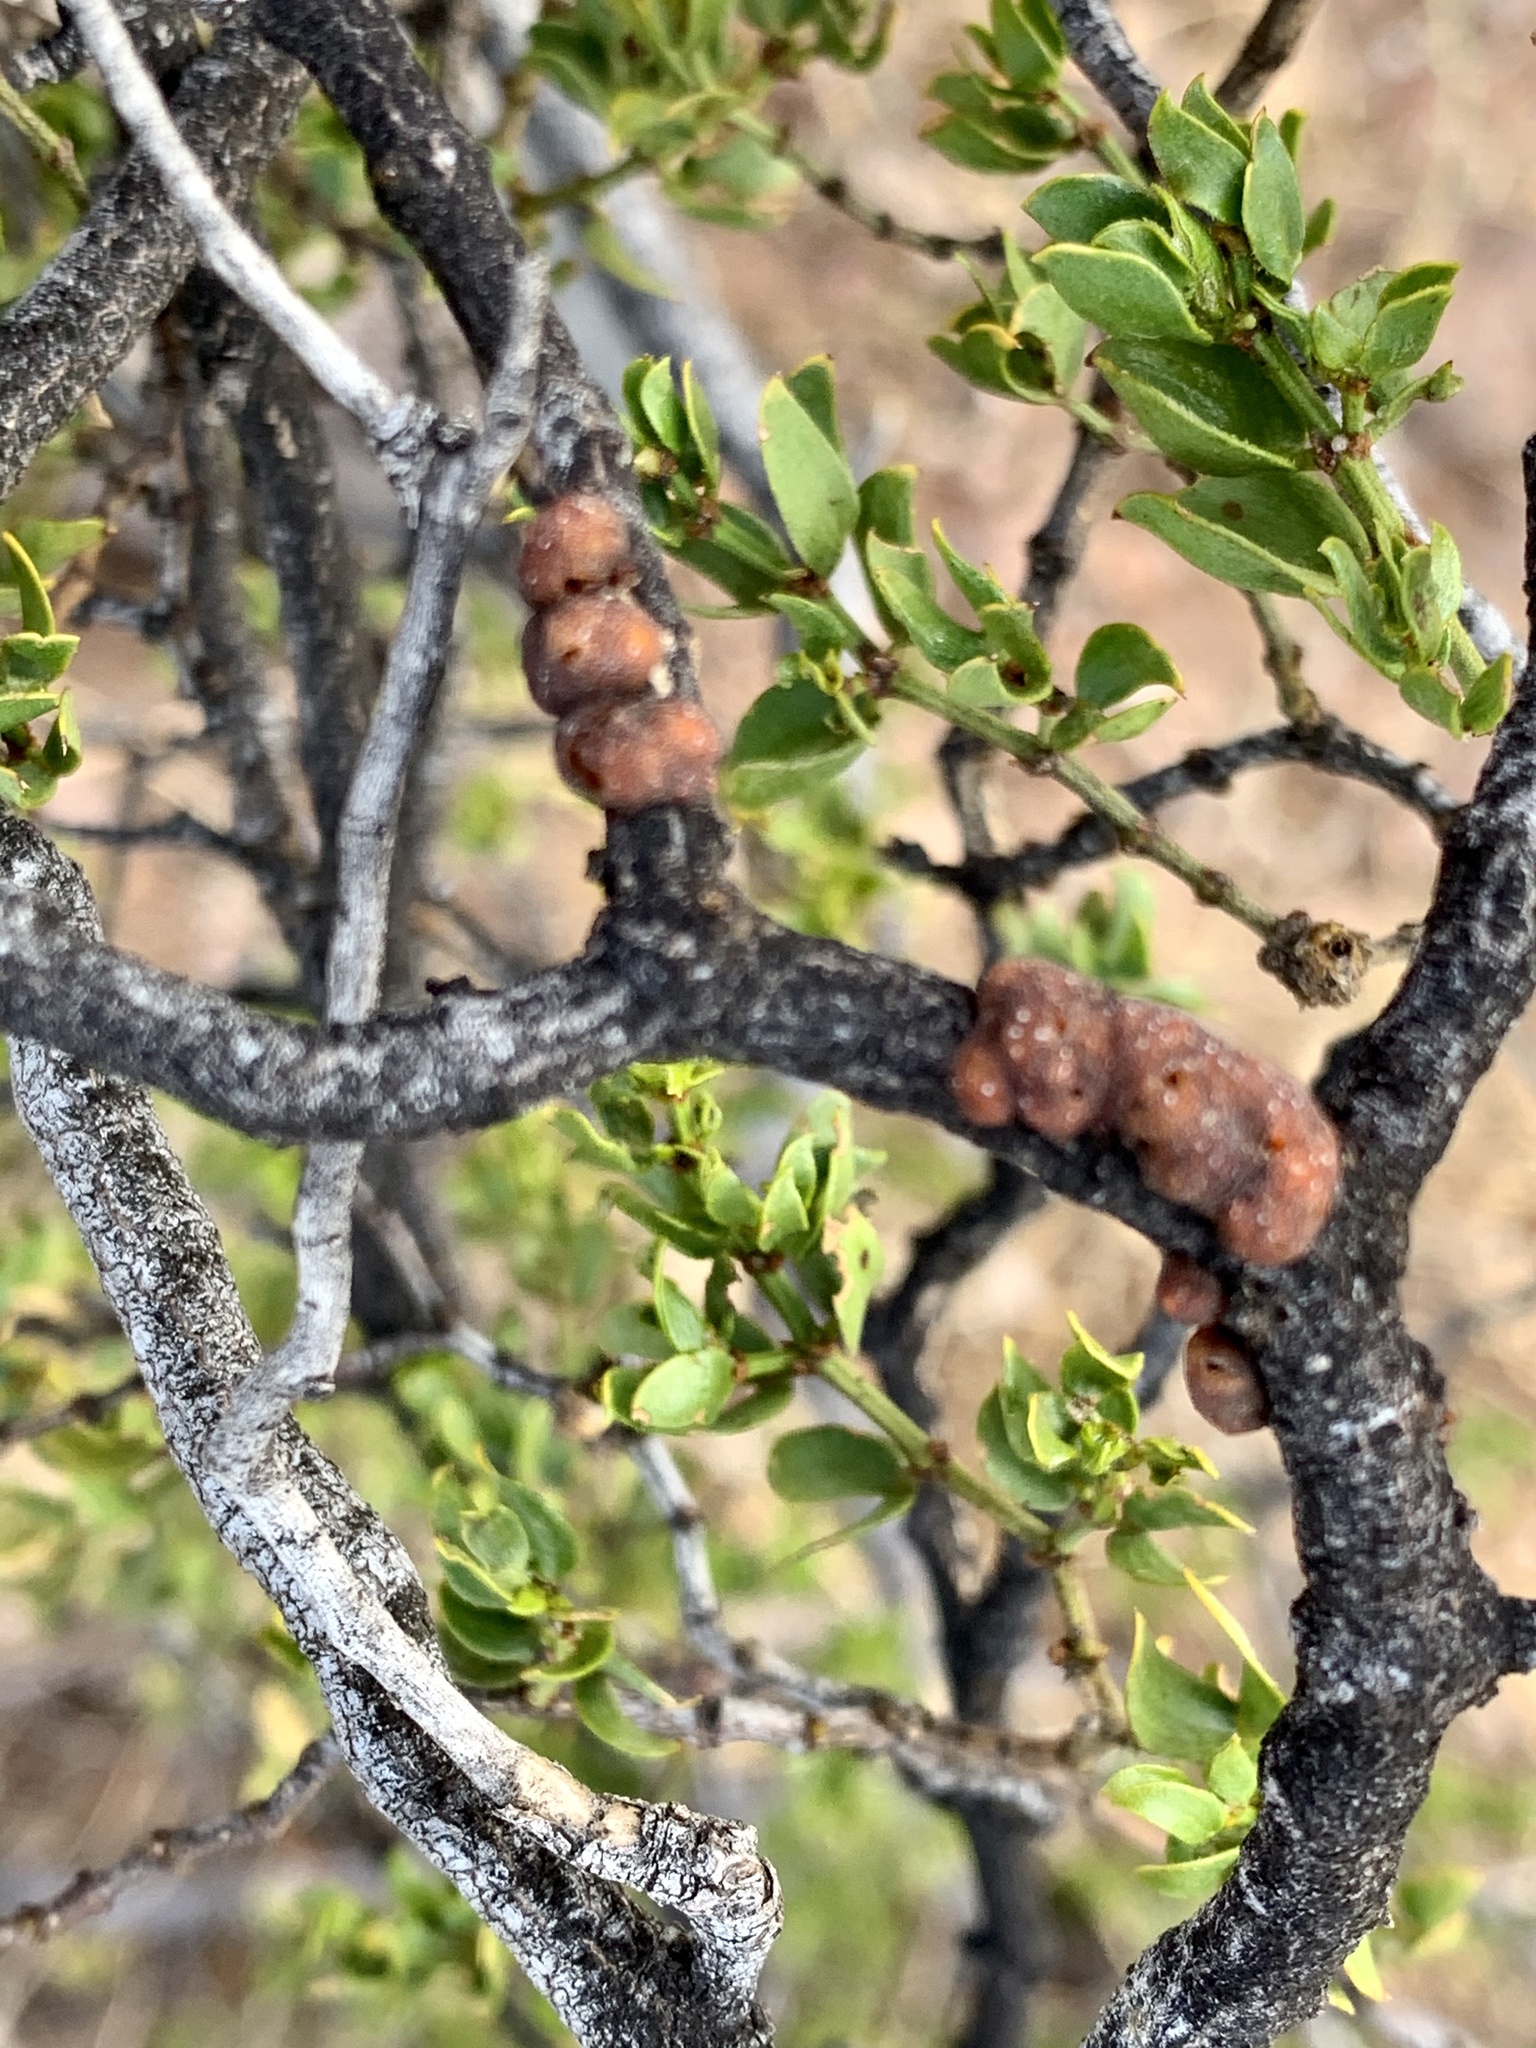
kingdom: Animalia
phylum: Arthropoda
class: Insecta
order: Hemiptera
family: Kerriidae
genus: Tachardiella
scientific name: Tachardiella larreae
